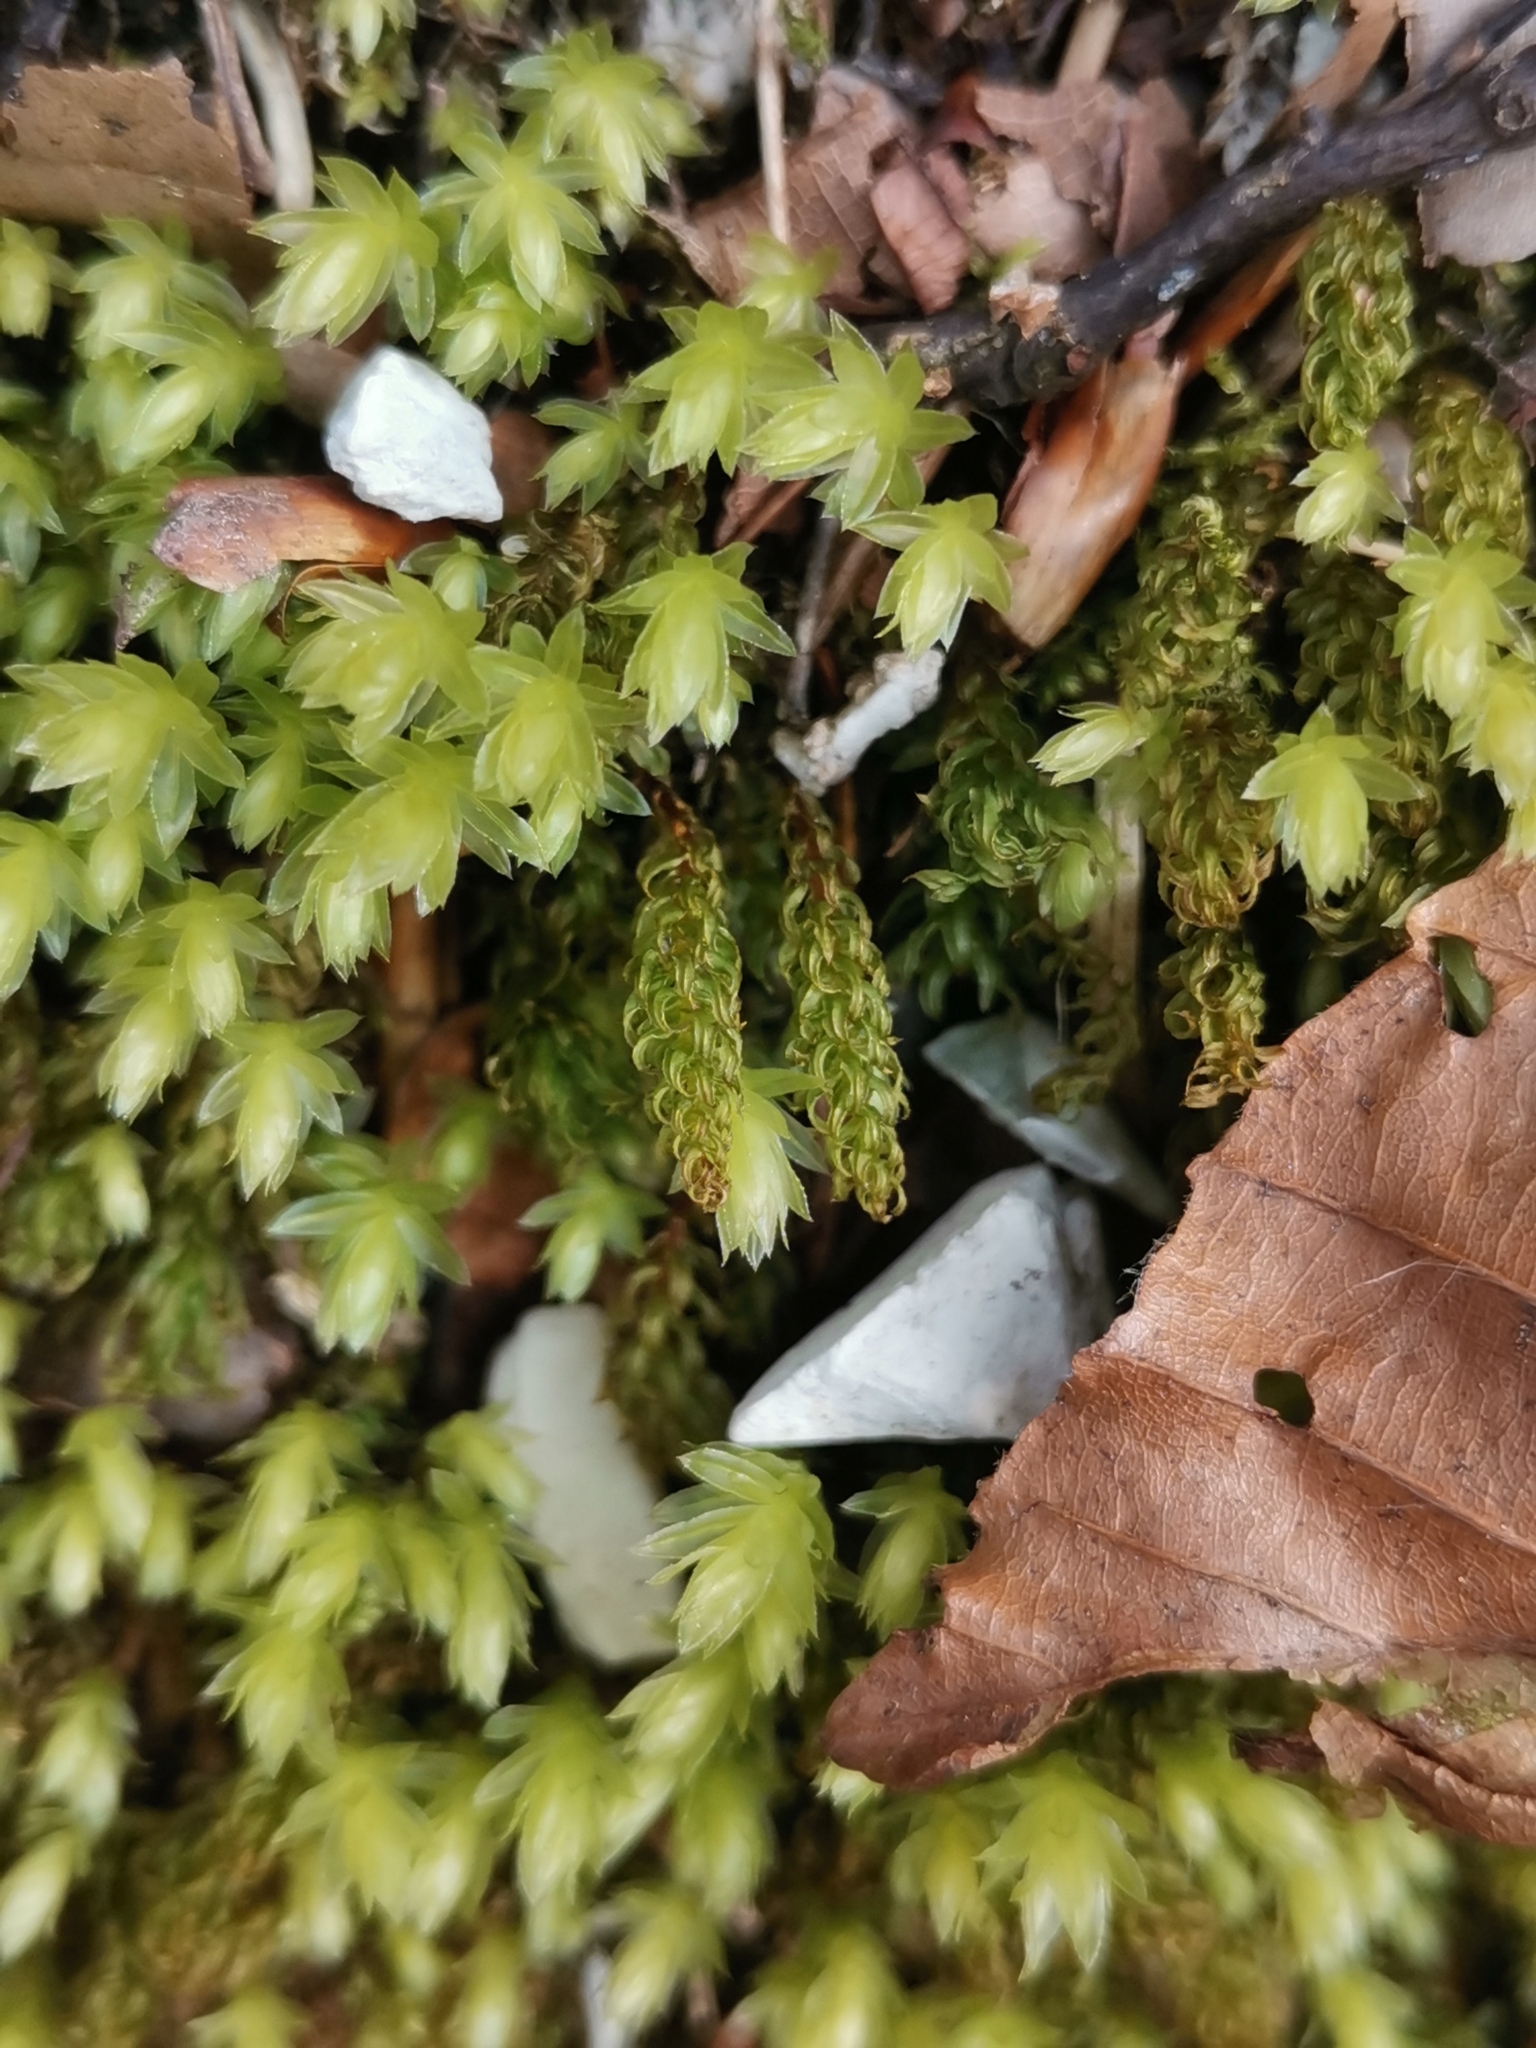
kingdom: Plantae
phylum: Bryophyta
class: Bryopsida
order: Bryales
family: Mniaceae
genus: Mnium
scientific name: Mnium thomsonii
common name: Thomson's leafy moss
